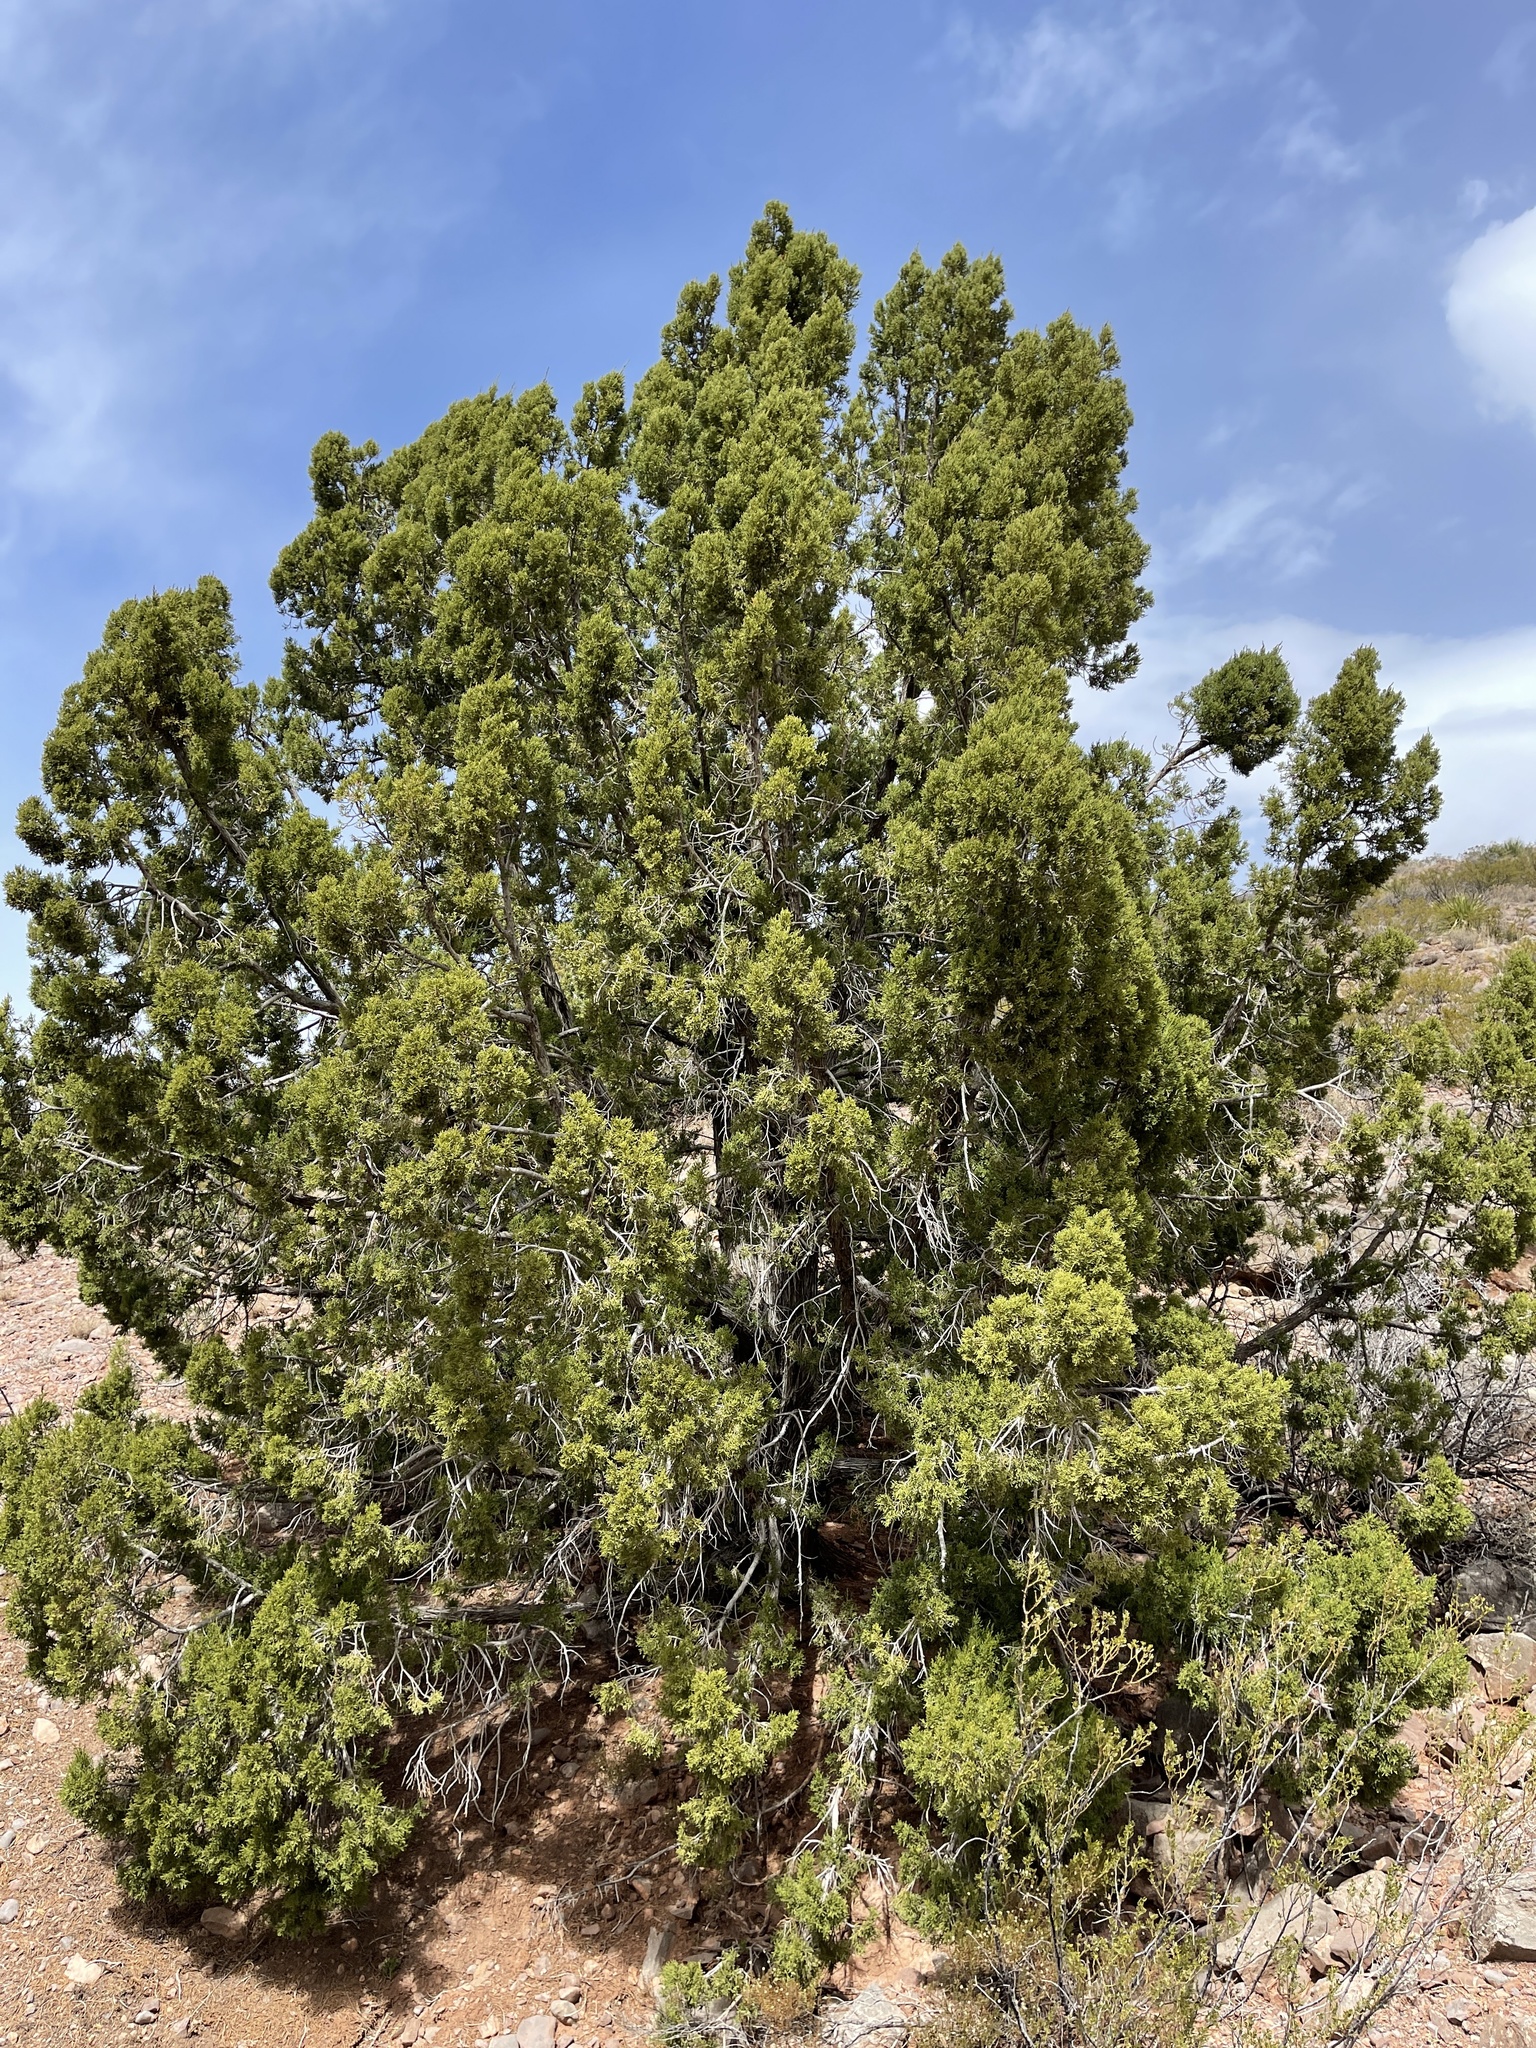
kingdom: Plantae
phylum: Tracheophyta
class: Pinopsida
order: Pinales
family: Cupressaceae
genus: Juniperus
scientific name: Juniperus monosperma
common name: One-seed juniper
